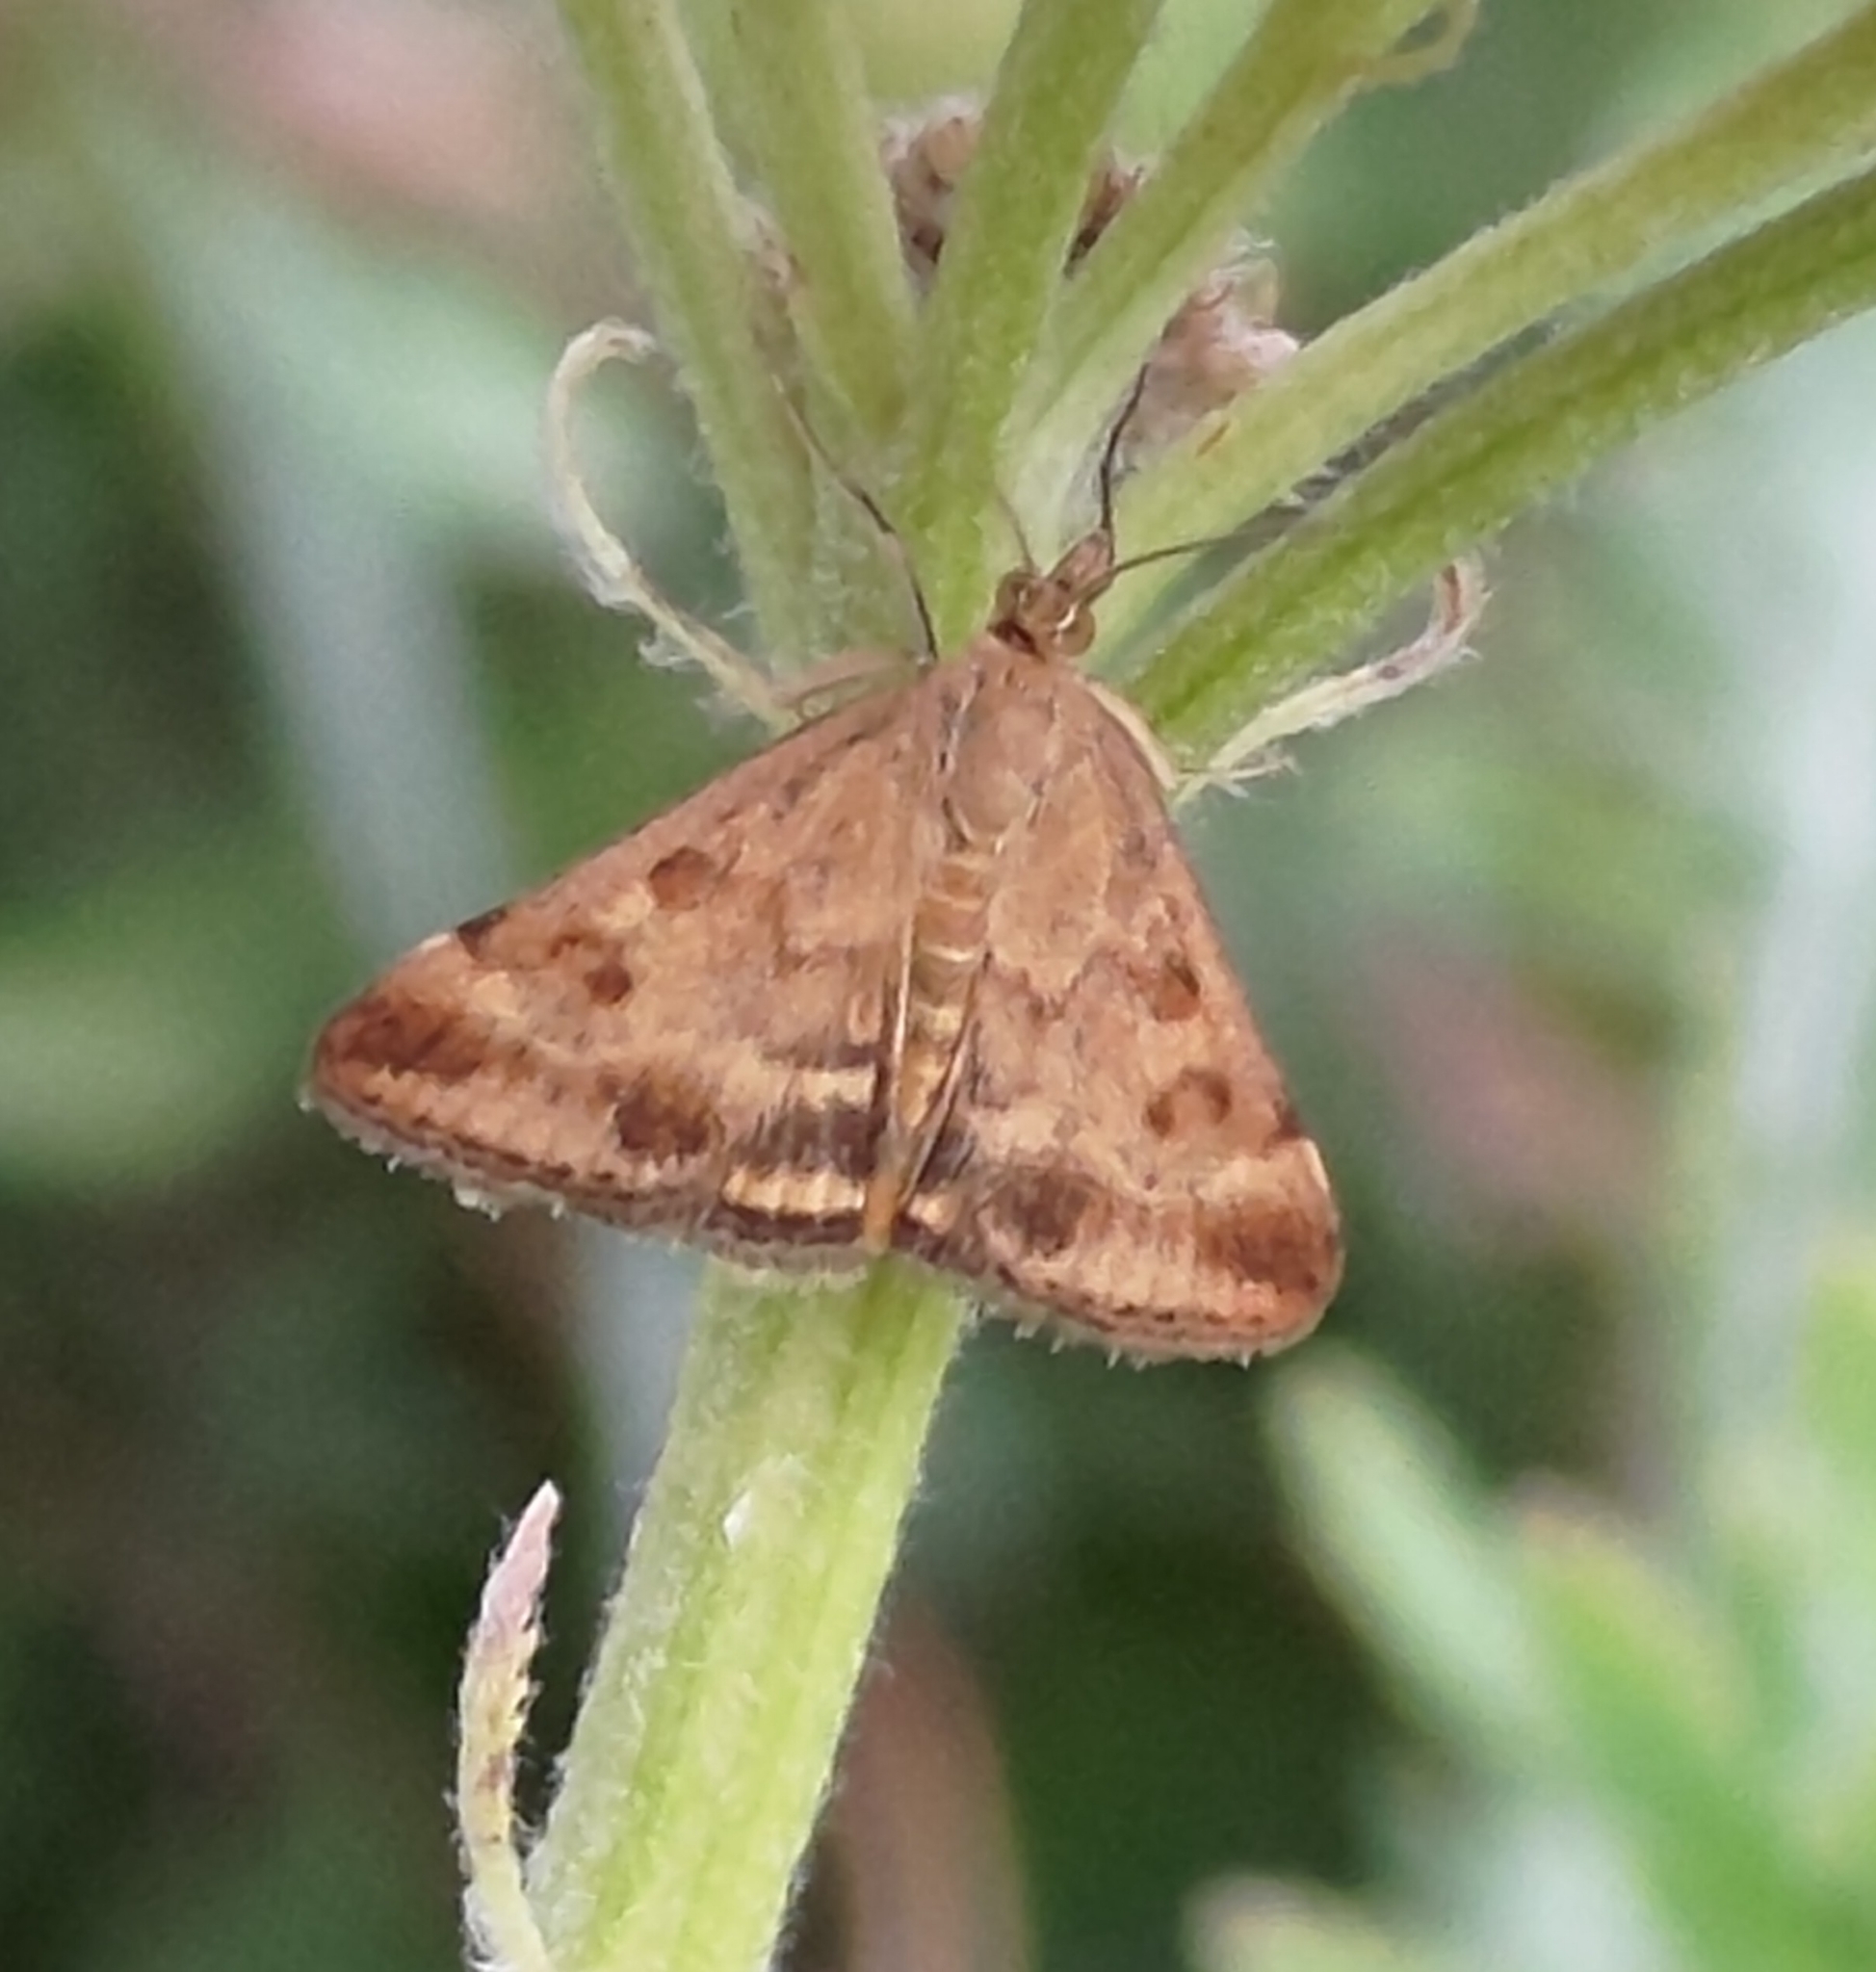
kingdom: Animalia
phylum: Arthropoda
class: Insecta
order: Lepidoptera
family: Crambidae
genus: Pyrausta
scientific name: Pyrausta despicata
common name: Straw-barred pearl
